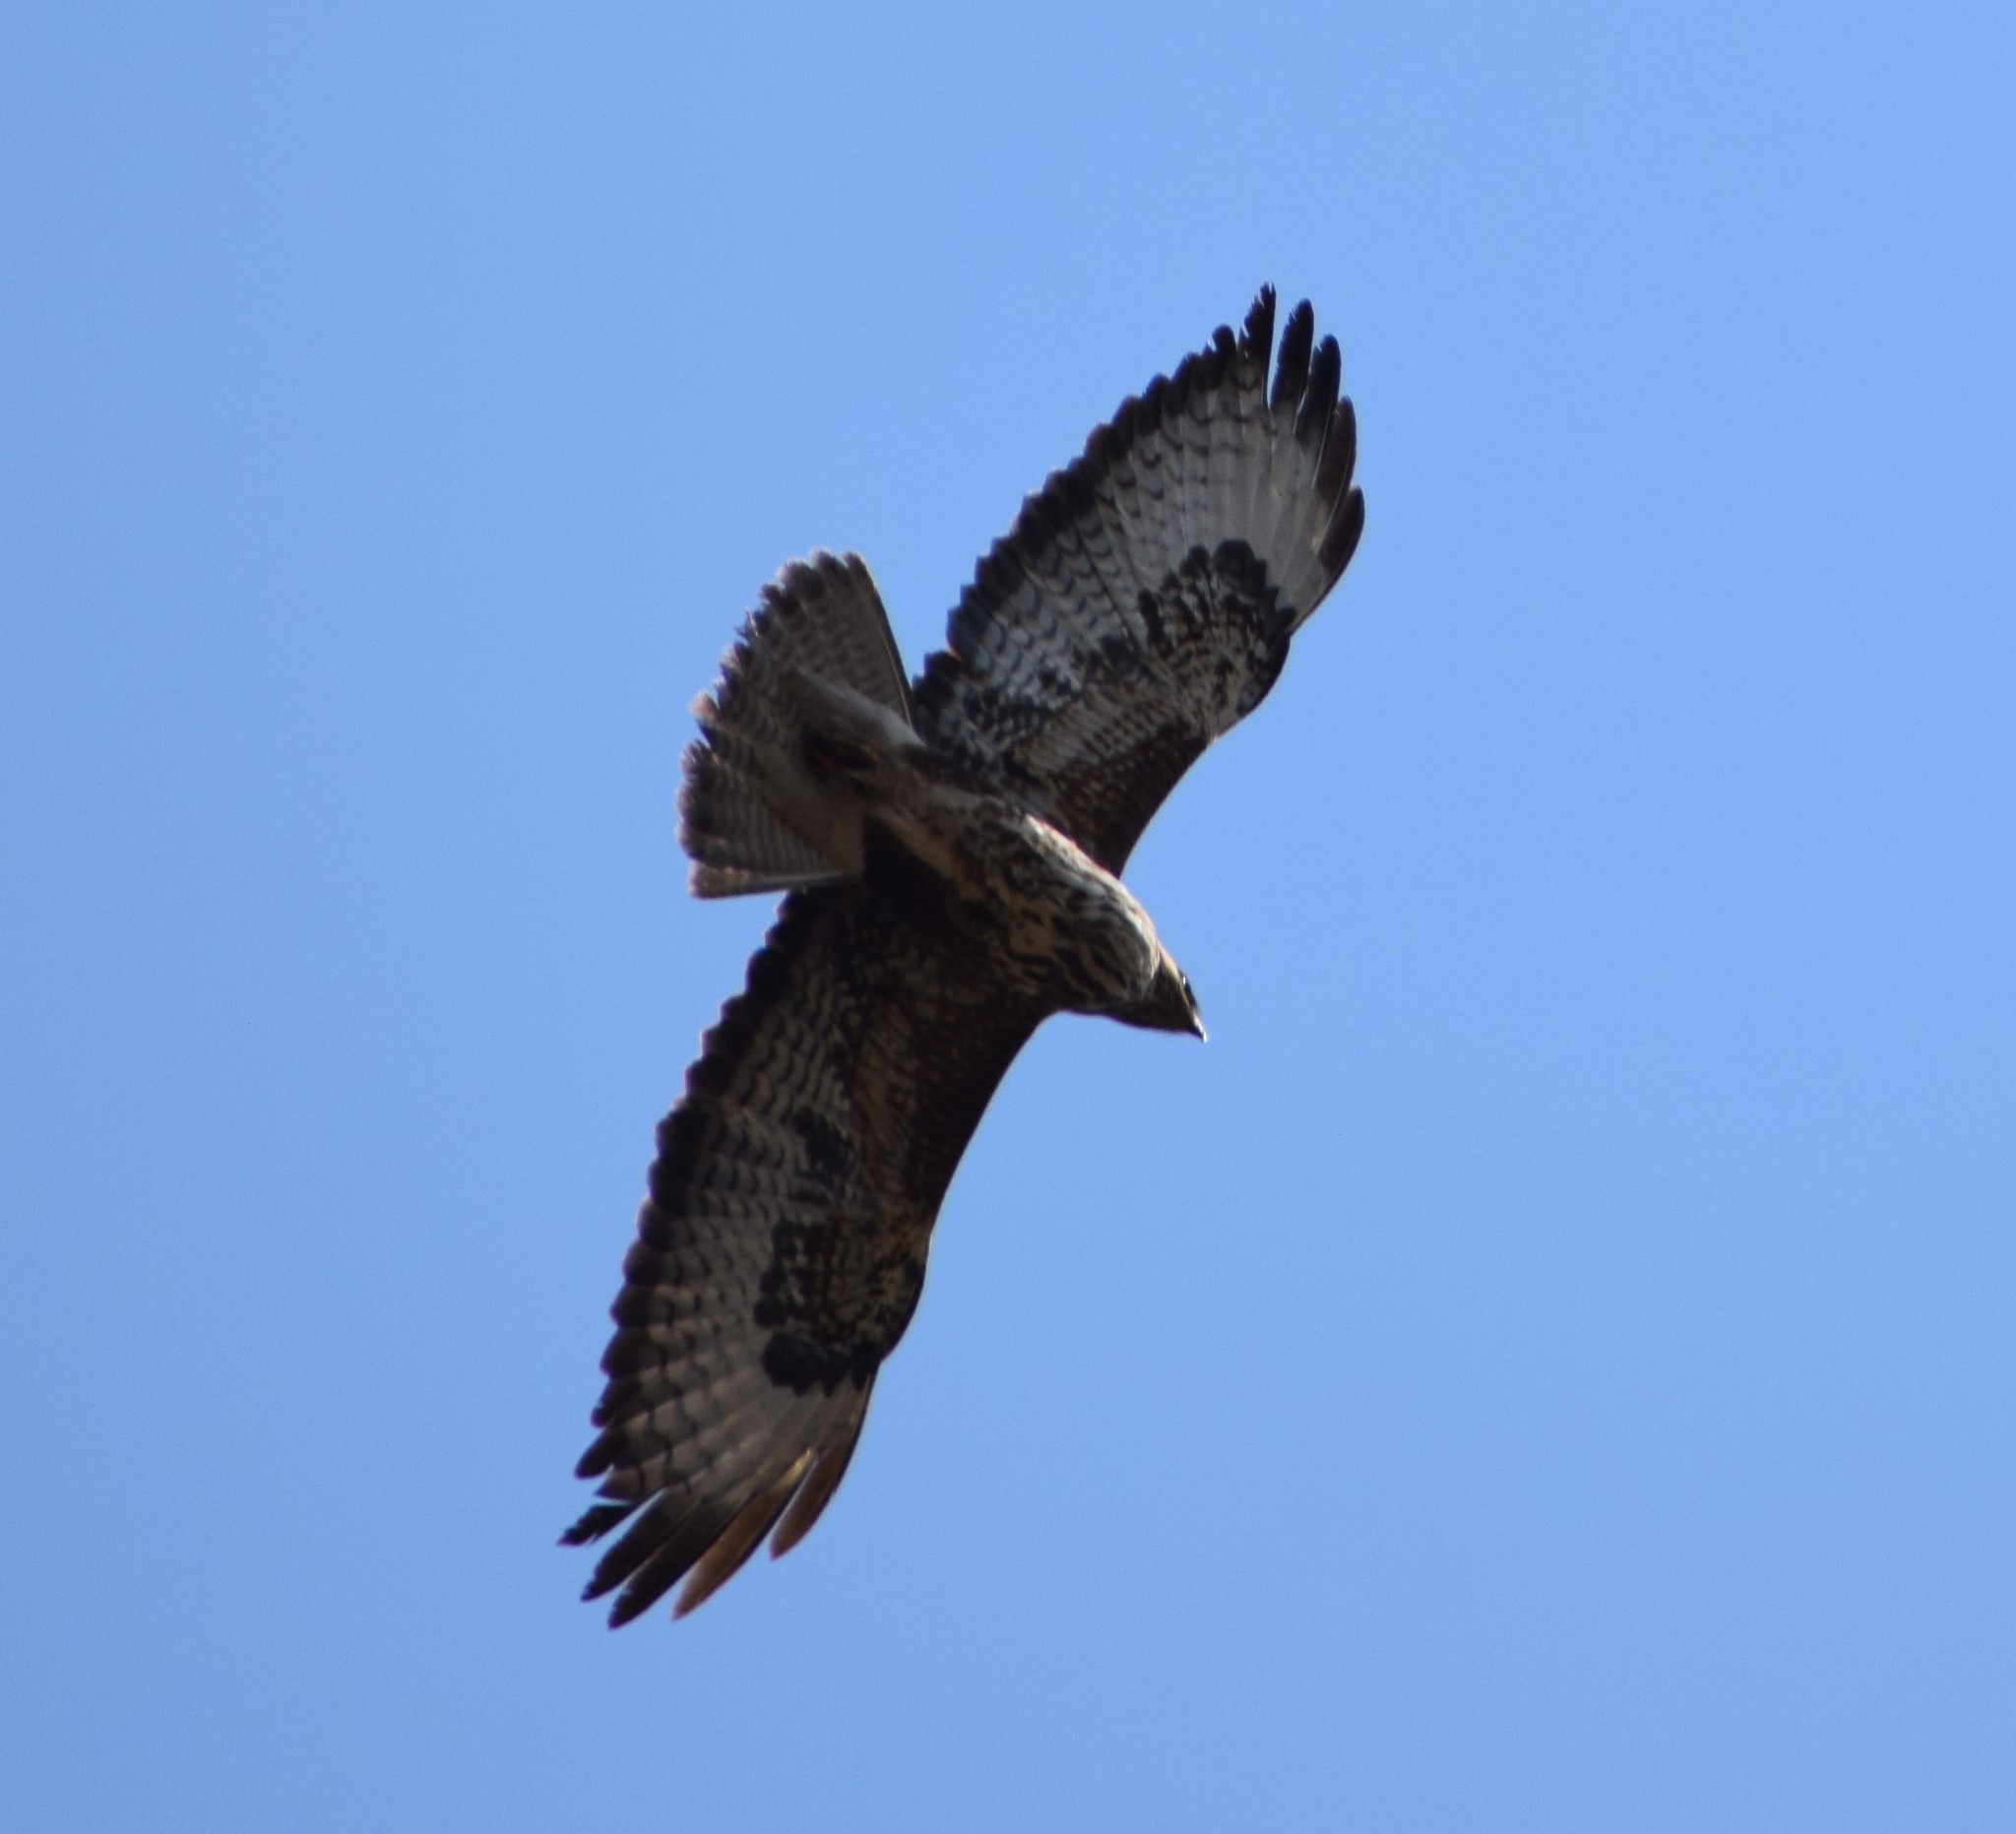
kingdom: Animalia
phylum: Chordata
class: Aves
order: Accipitriformes
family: Accipitridae
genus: Buteo
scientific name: Buteo buteo
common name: Common buzzard
